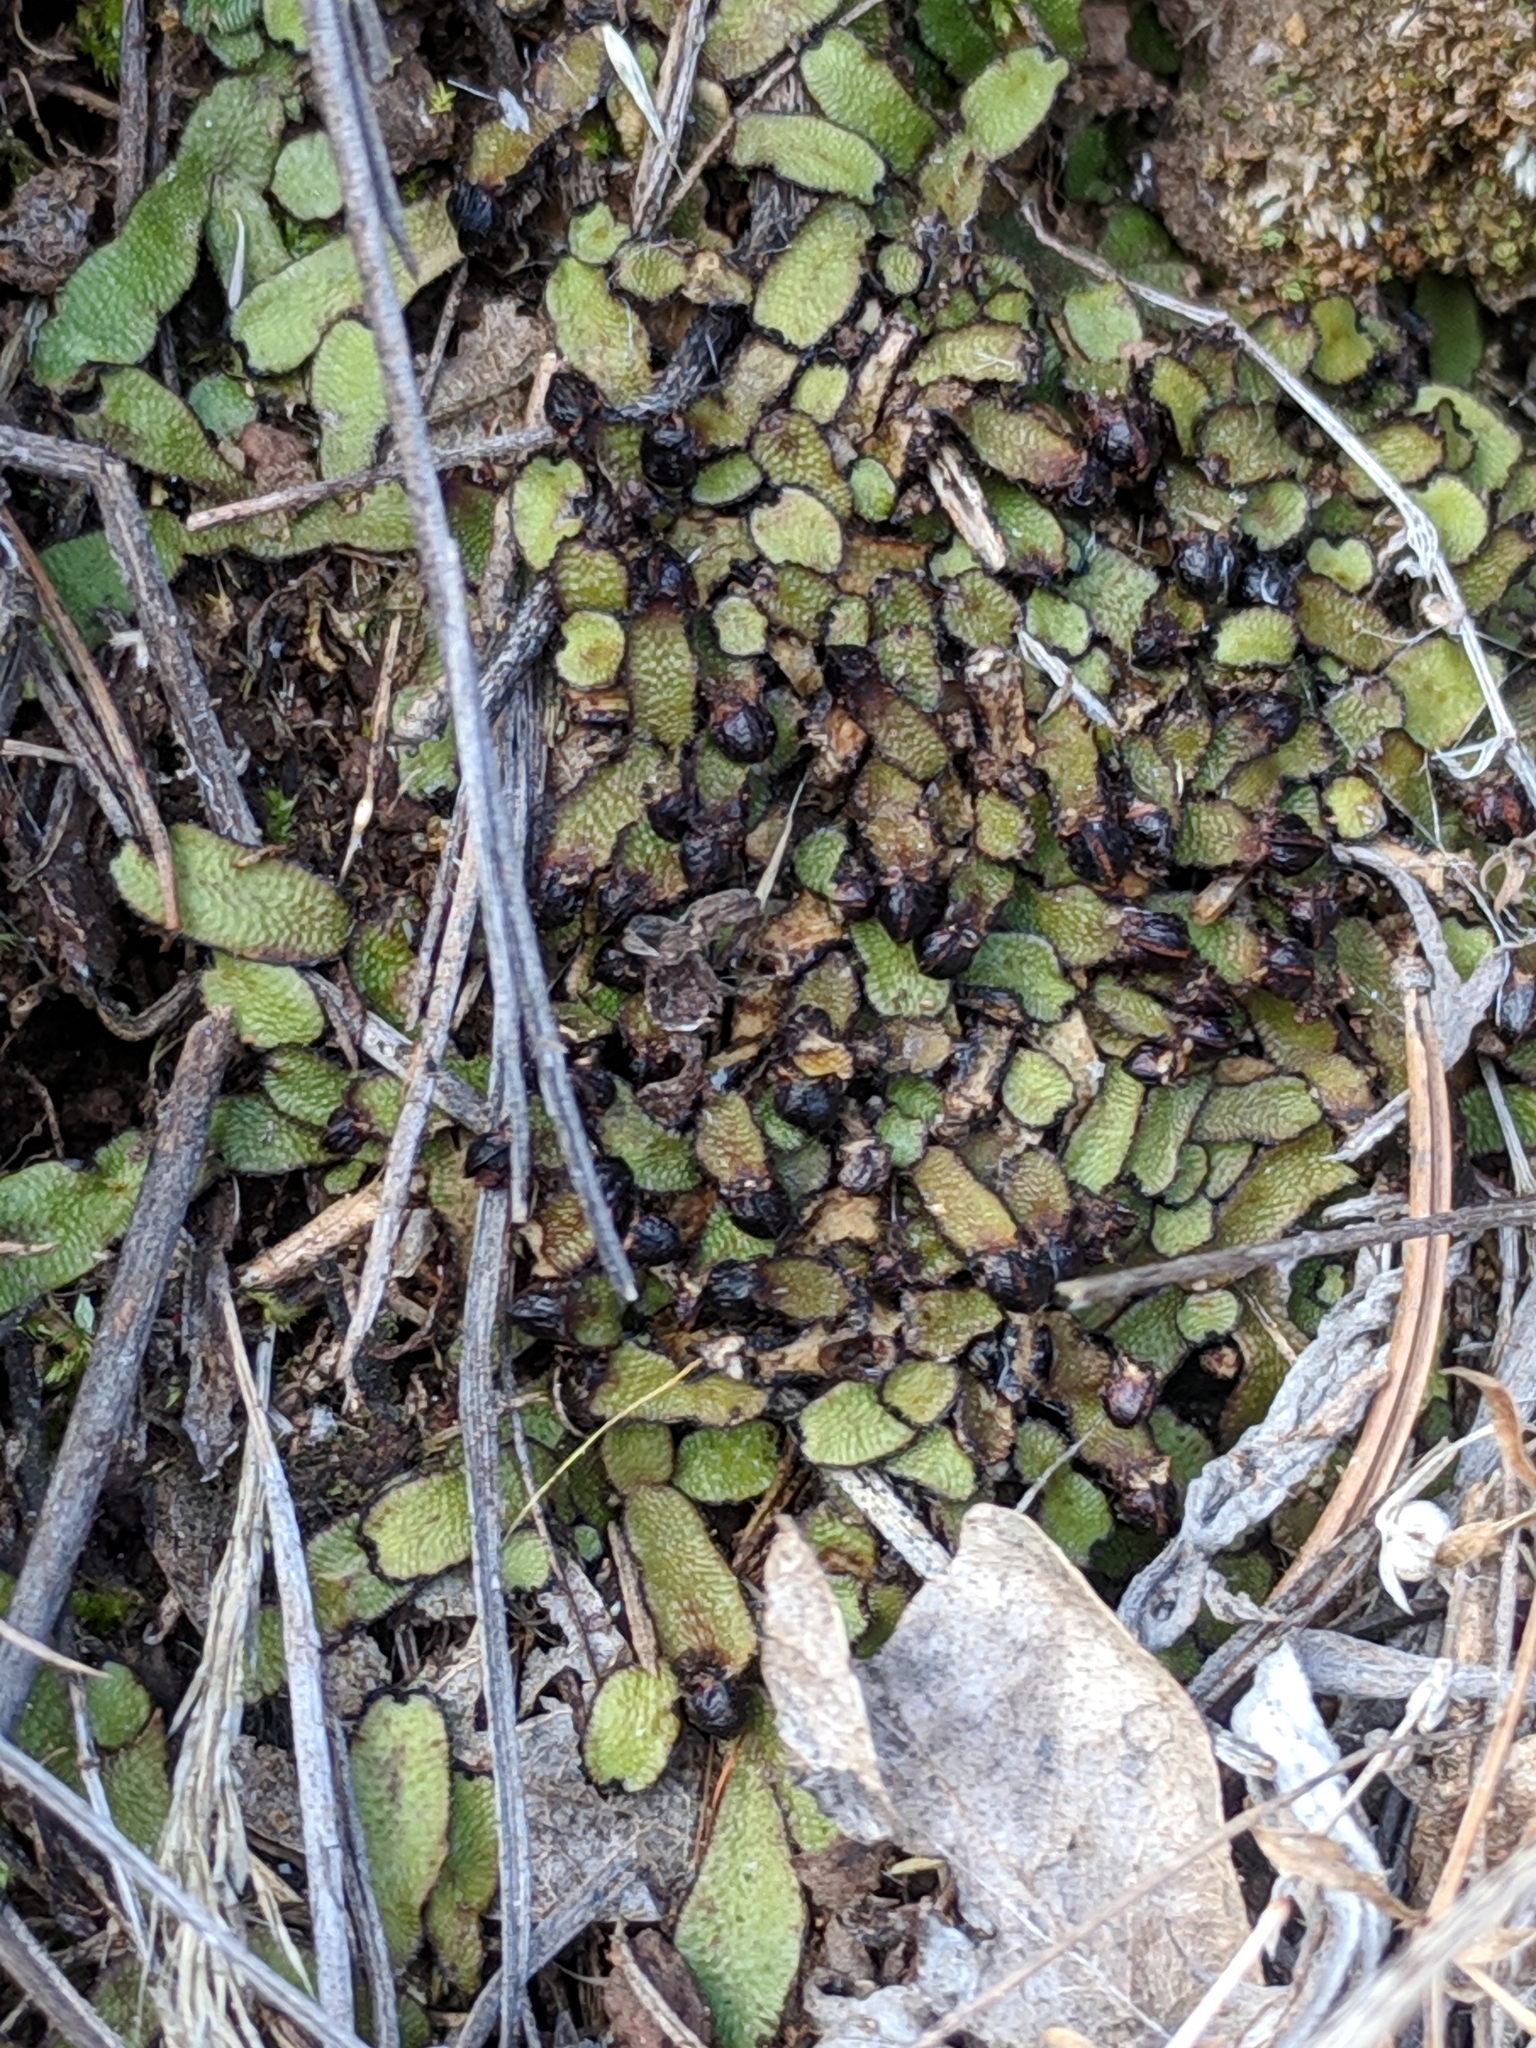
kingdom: Plantae
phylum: Marchantiophyta
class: Marchantiopsida
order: Marchantiales
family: Targioniaceae
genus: Targionia
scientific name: Targionia hypophylla
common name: Orobus-seed liverwort
